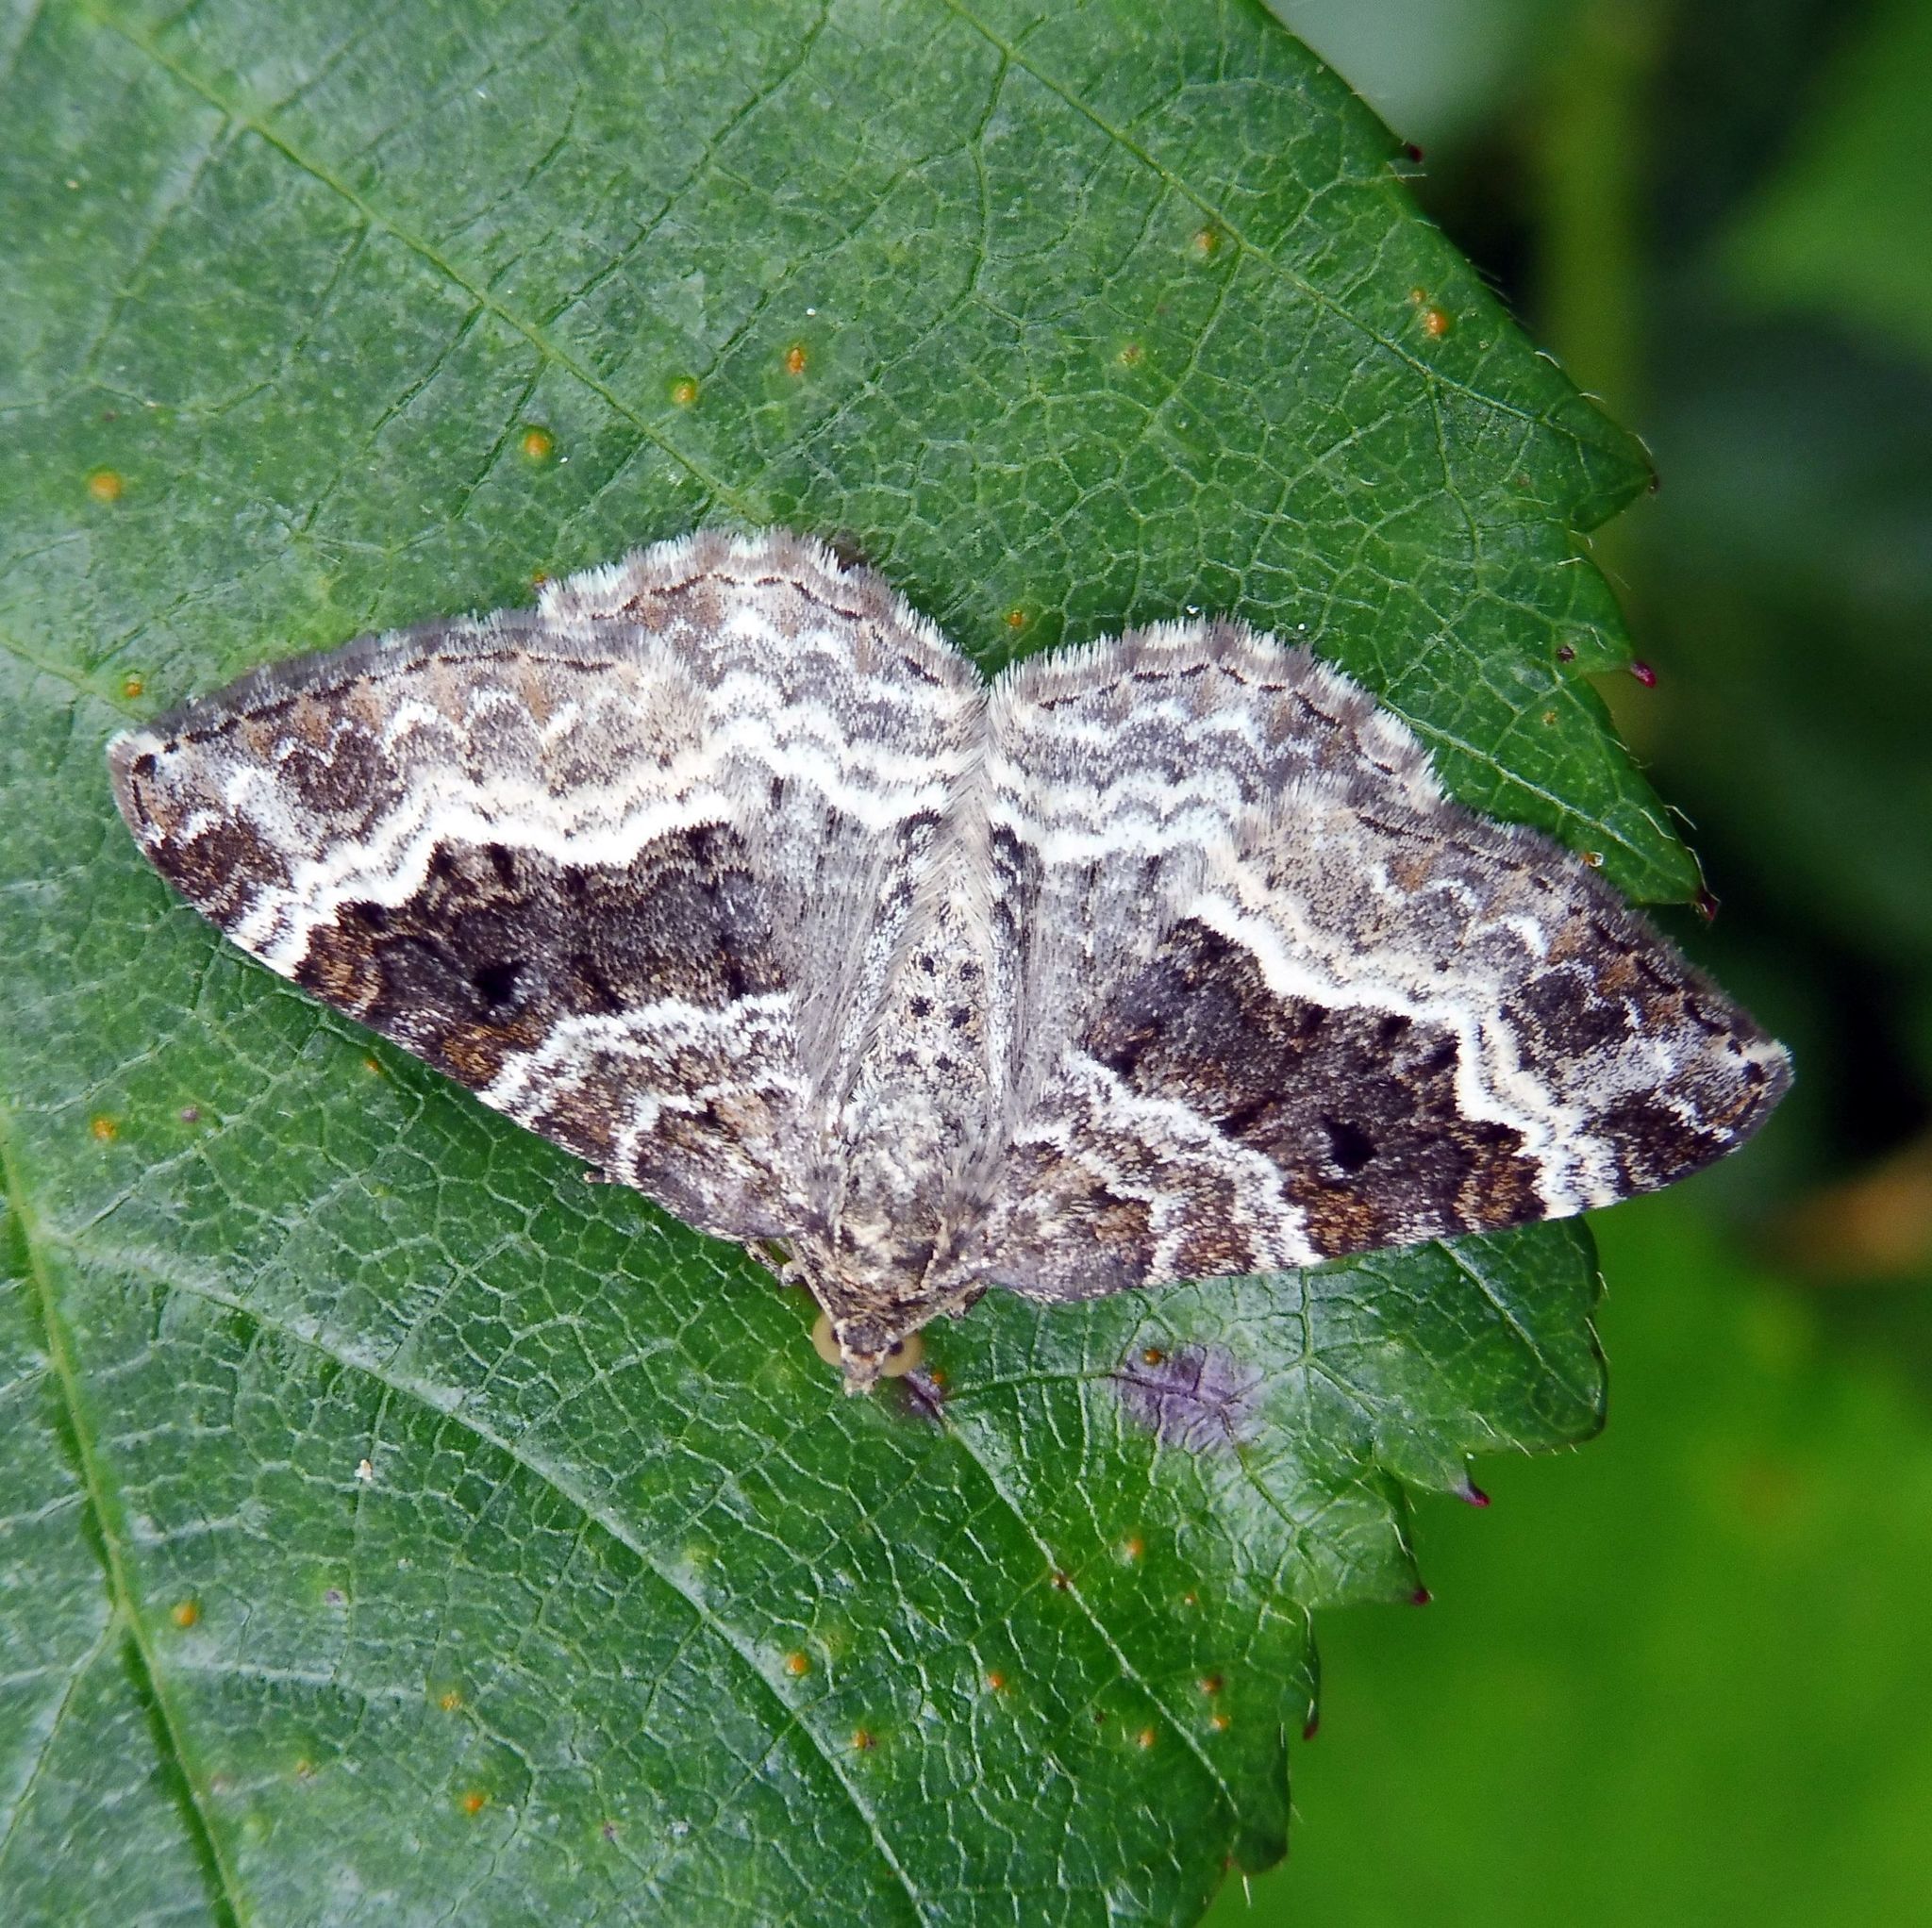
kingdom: Animalia
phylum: Arthropoda
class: Insecta
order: Lepidoptera
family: Geometridae
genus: Epirrhoe
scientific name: Epirrhoe alternata
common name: Common carpet
